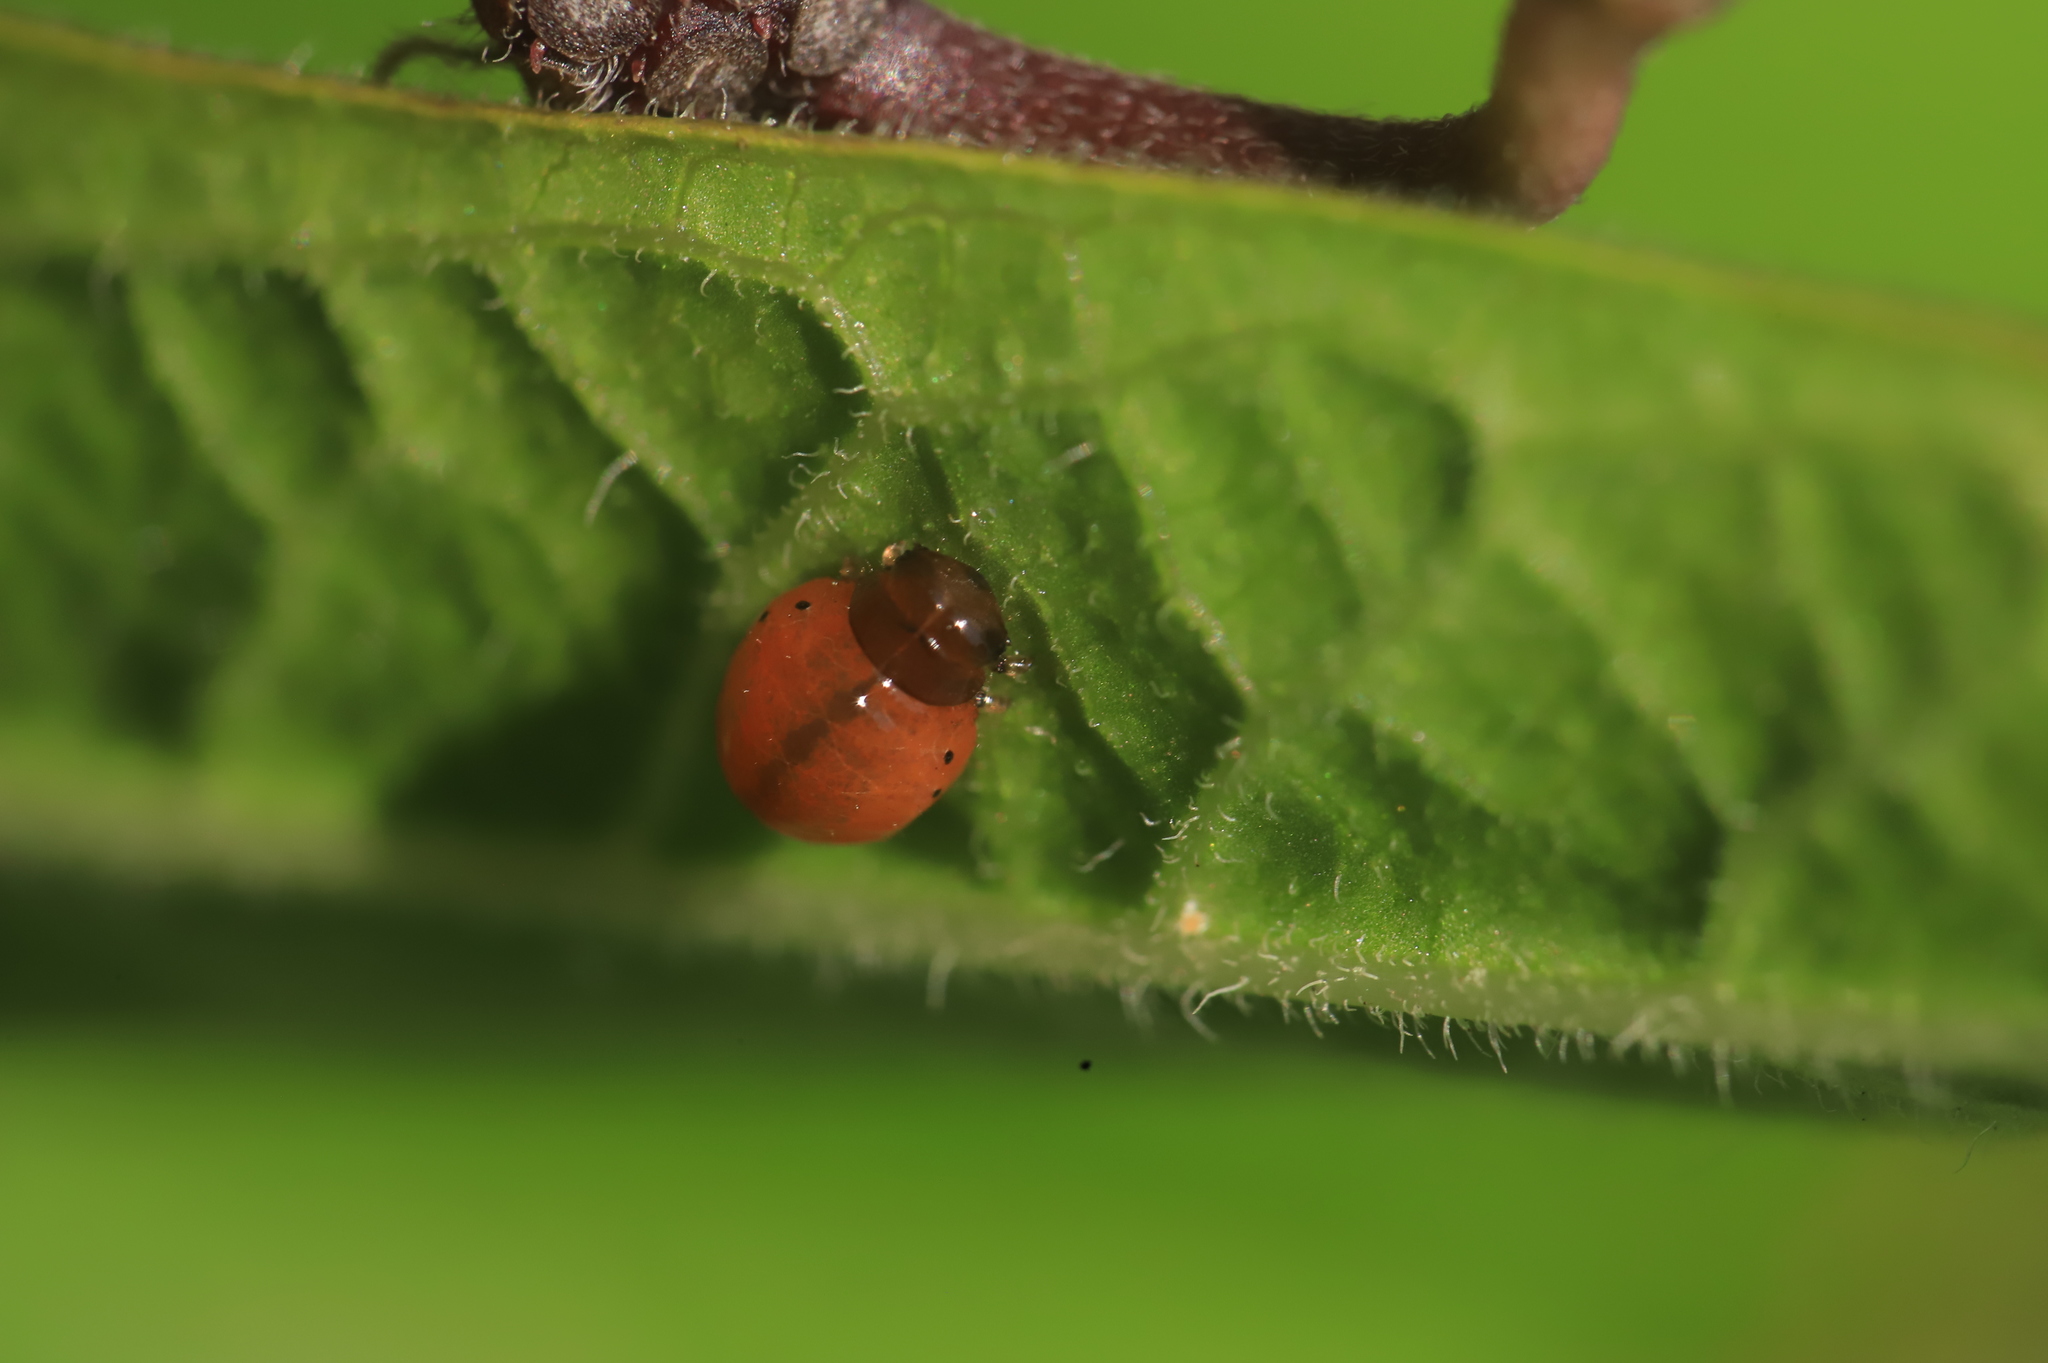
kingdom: Animalia
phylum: Arthropoda
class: Insecta
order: Coleoptera
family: Chrysomelidae
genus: Labidomera
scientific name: Labidomera clivicollis
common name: Swamp milkweed leaf beetle
